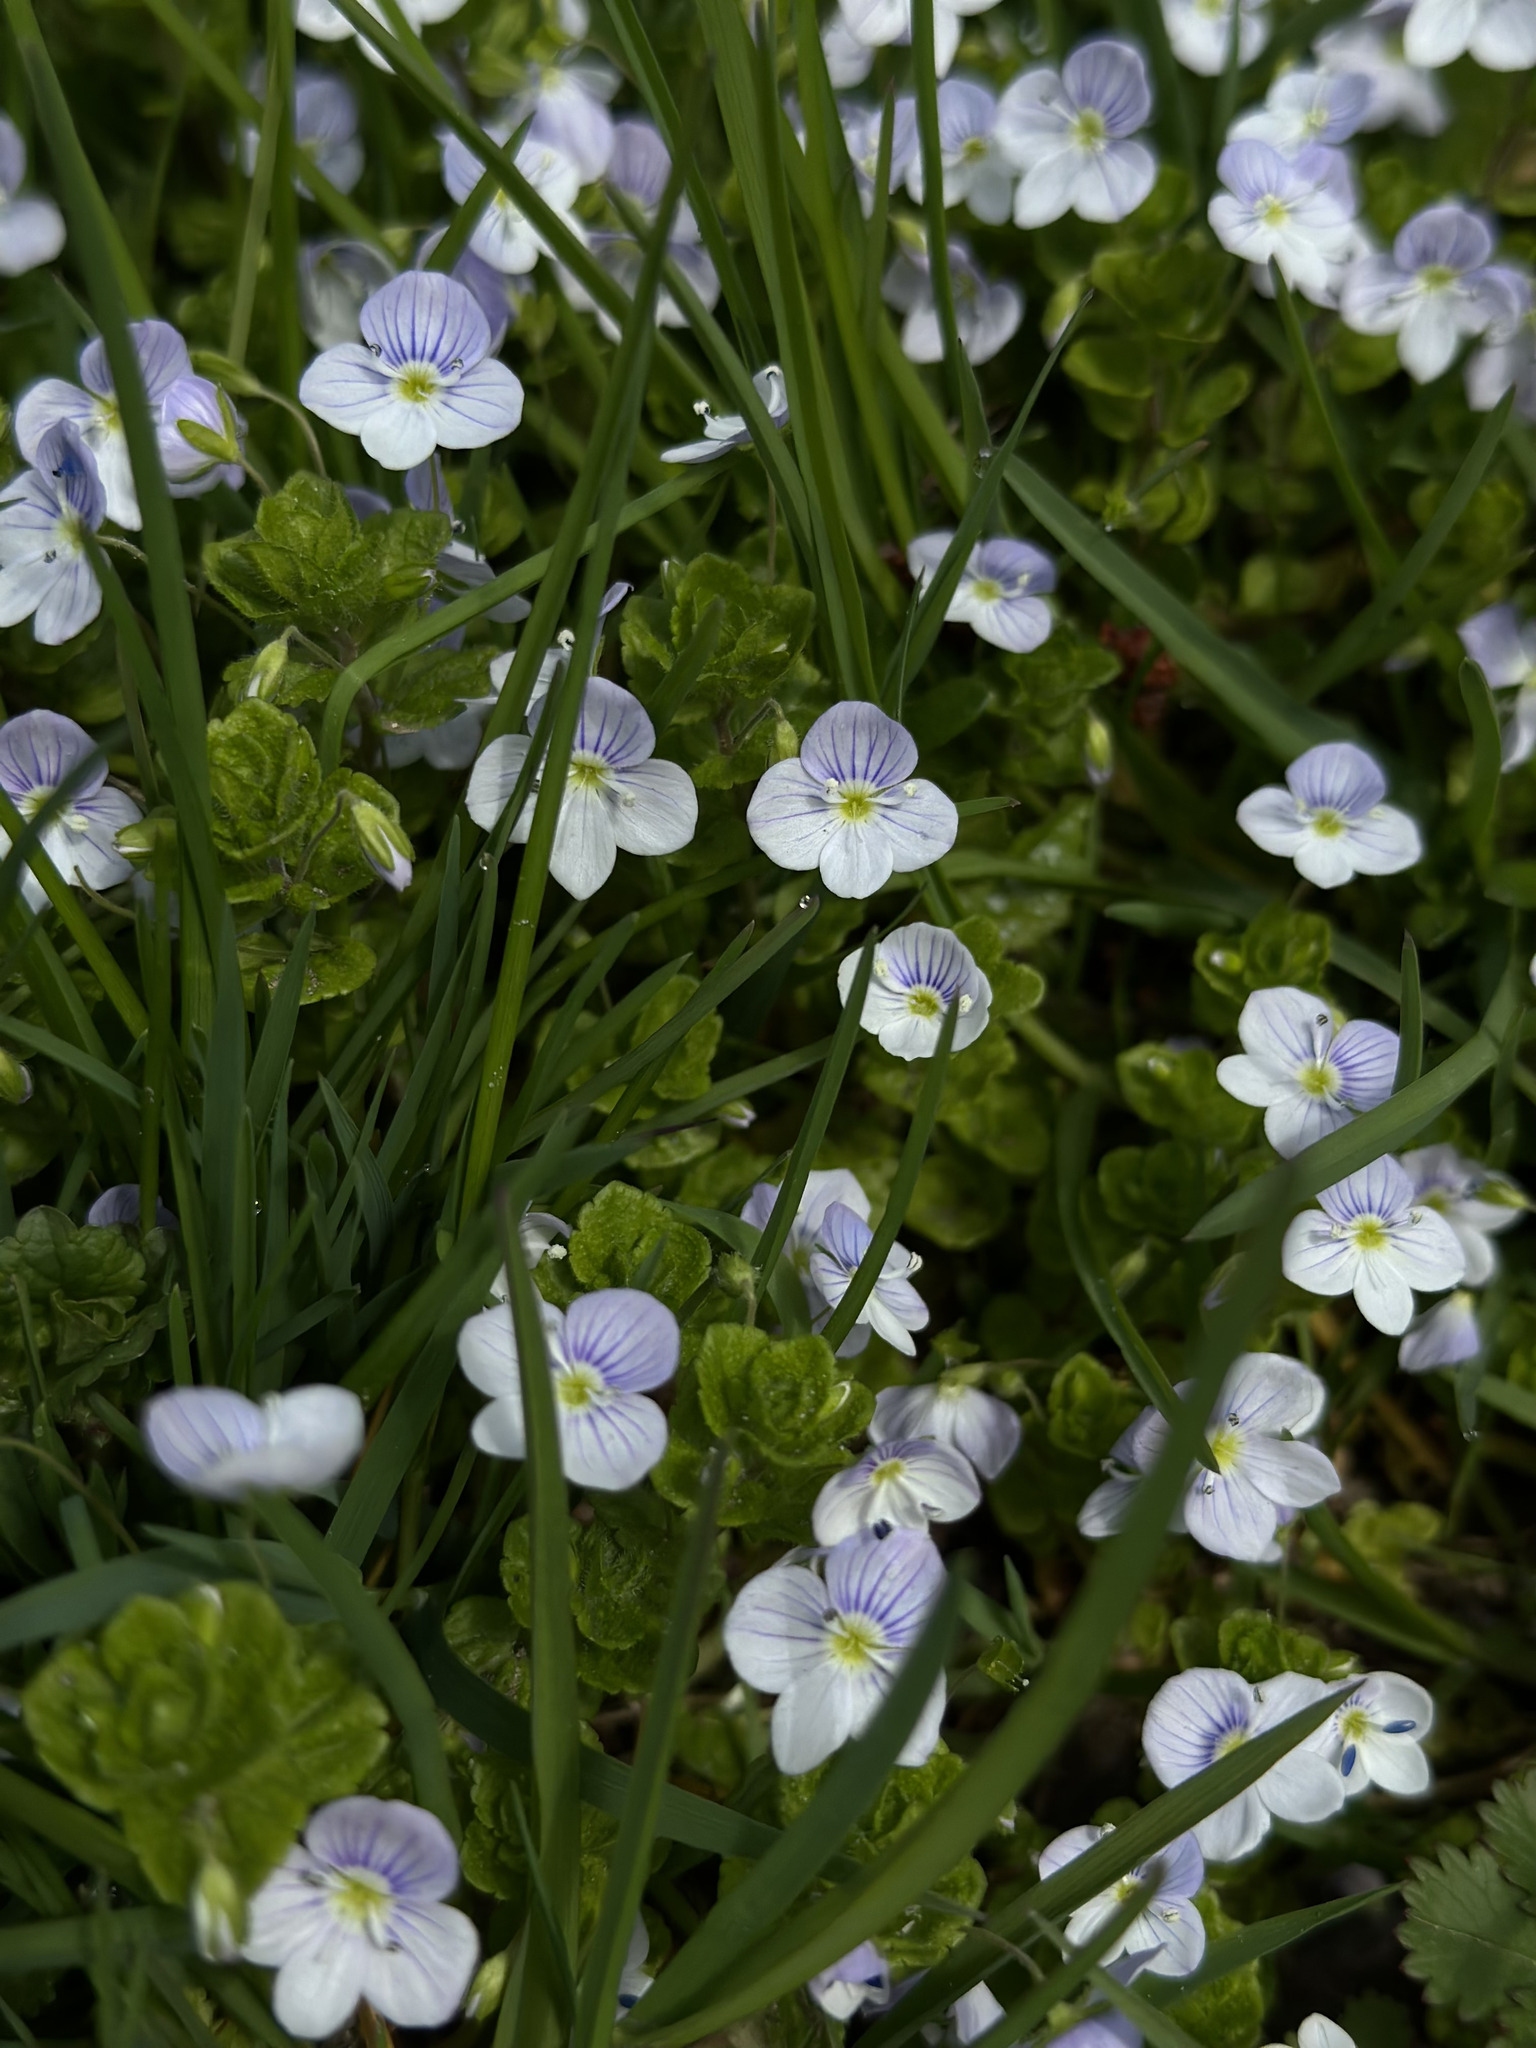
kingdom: Plantae
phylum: Tracheophyta
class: Magnoliopsida
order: Lamiales
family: Plantaginaceae
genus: Veronica
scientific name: Veronica filiformis
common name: Slender speedwell
